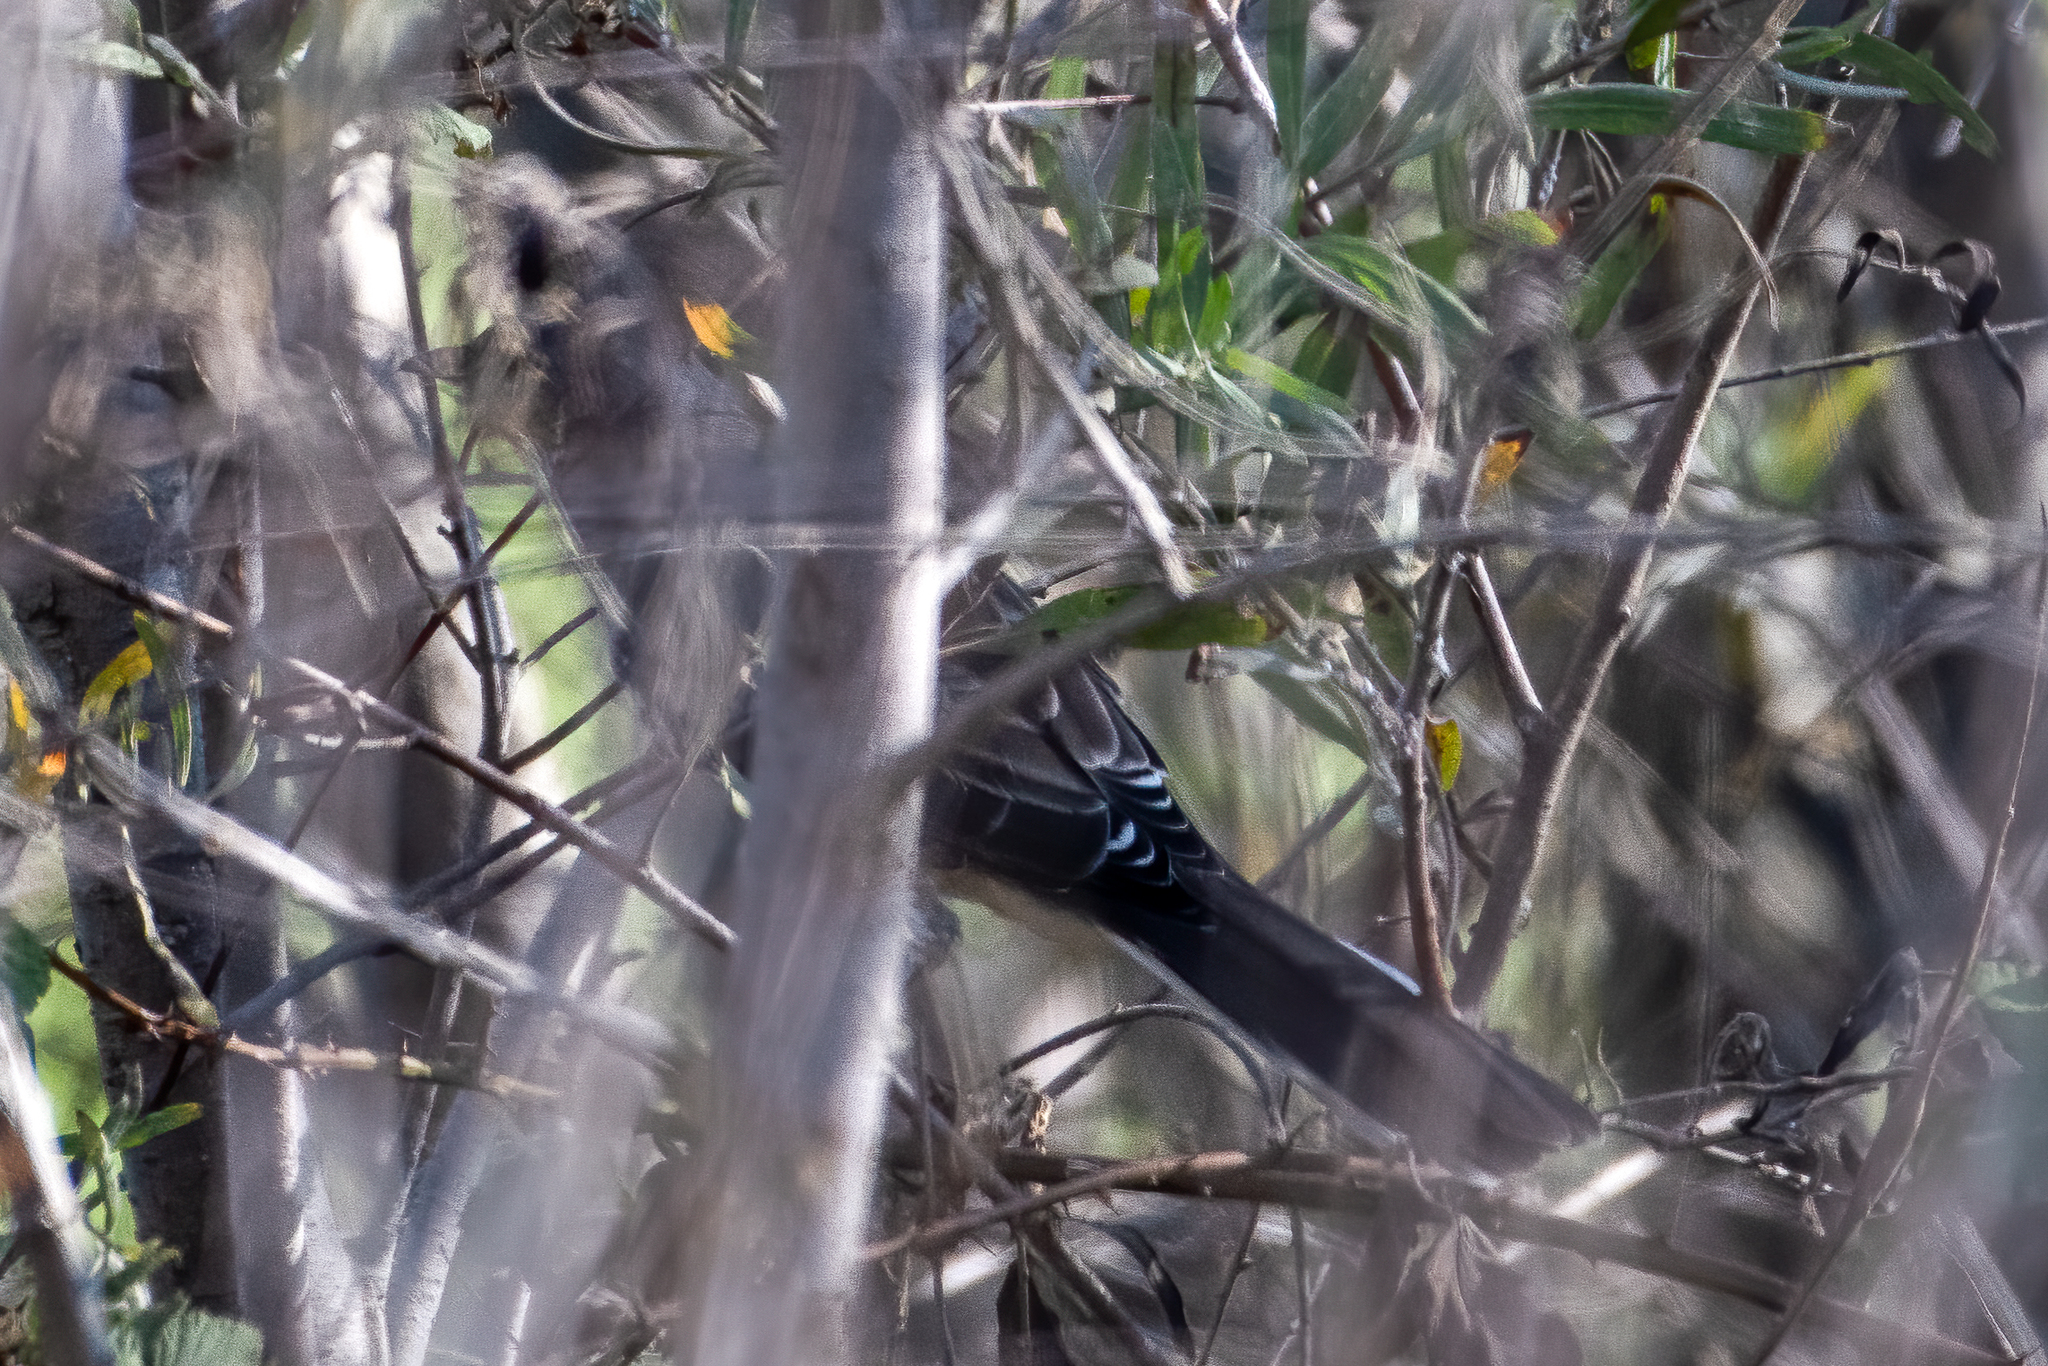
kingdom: Animalia
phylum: Chordata
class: Aves
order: Passeriformes
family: Mimidae
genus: Mimus
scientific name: Mimus polyglottos
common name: Northern mockingbird
